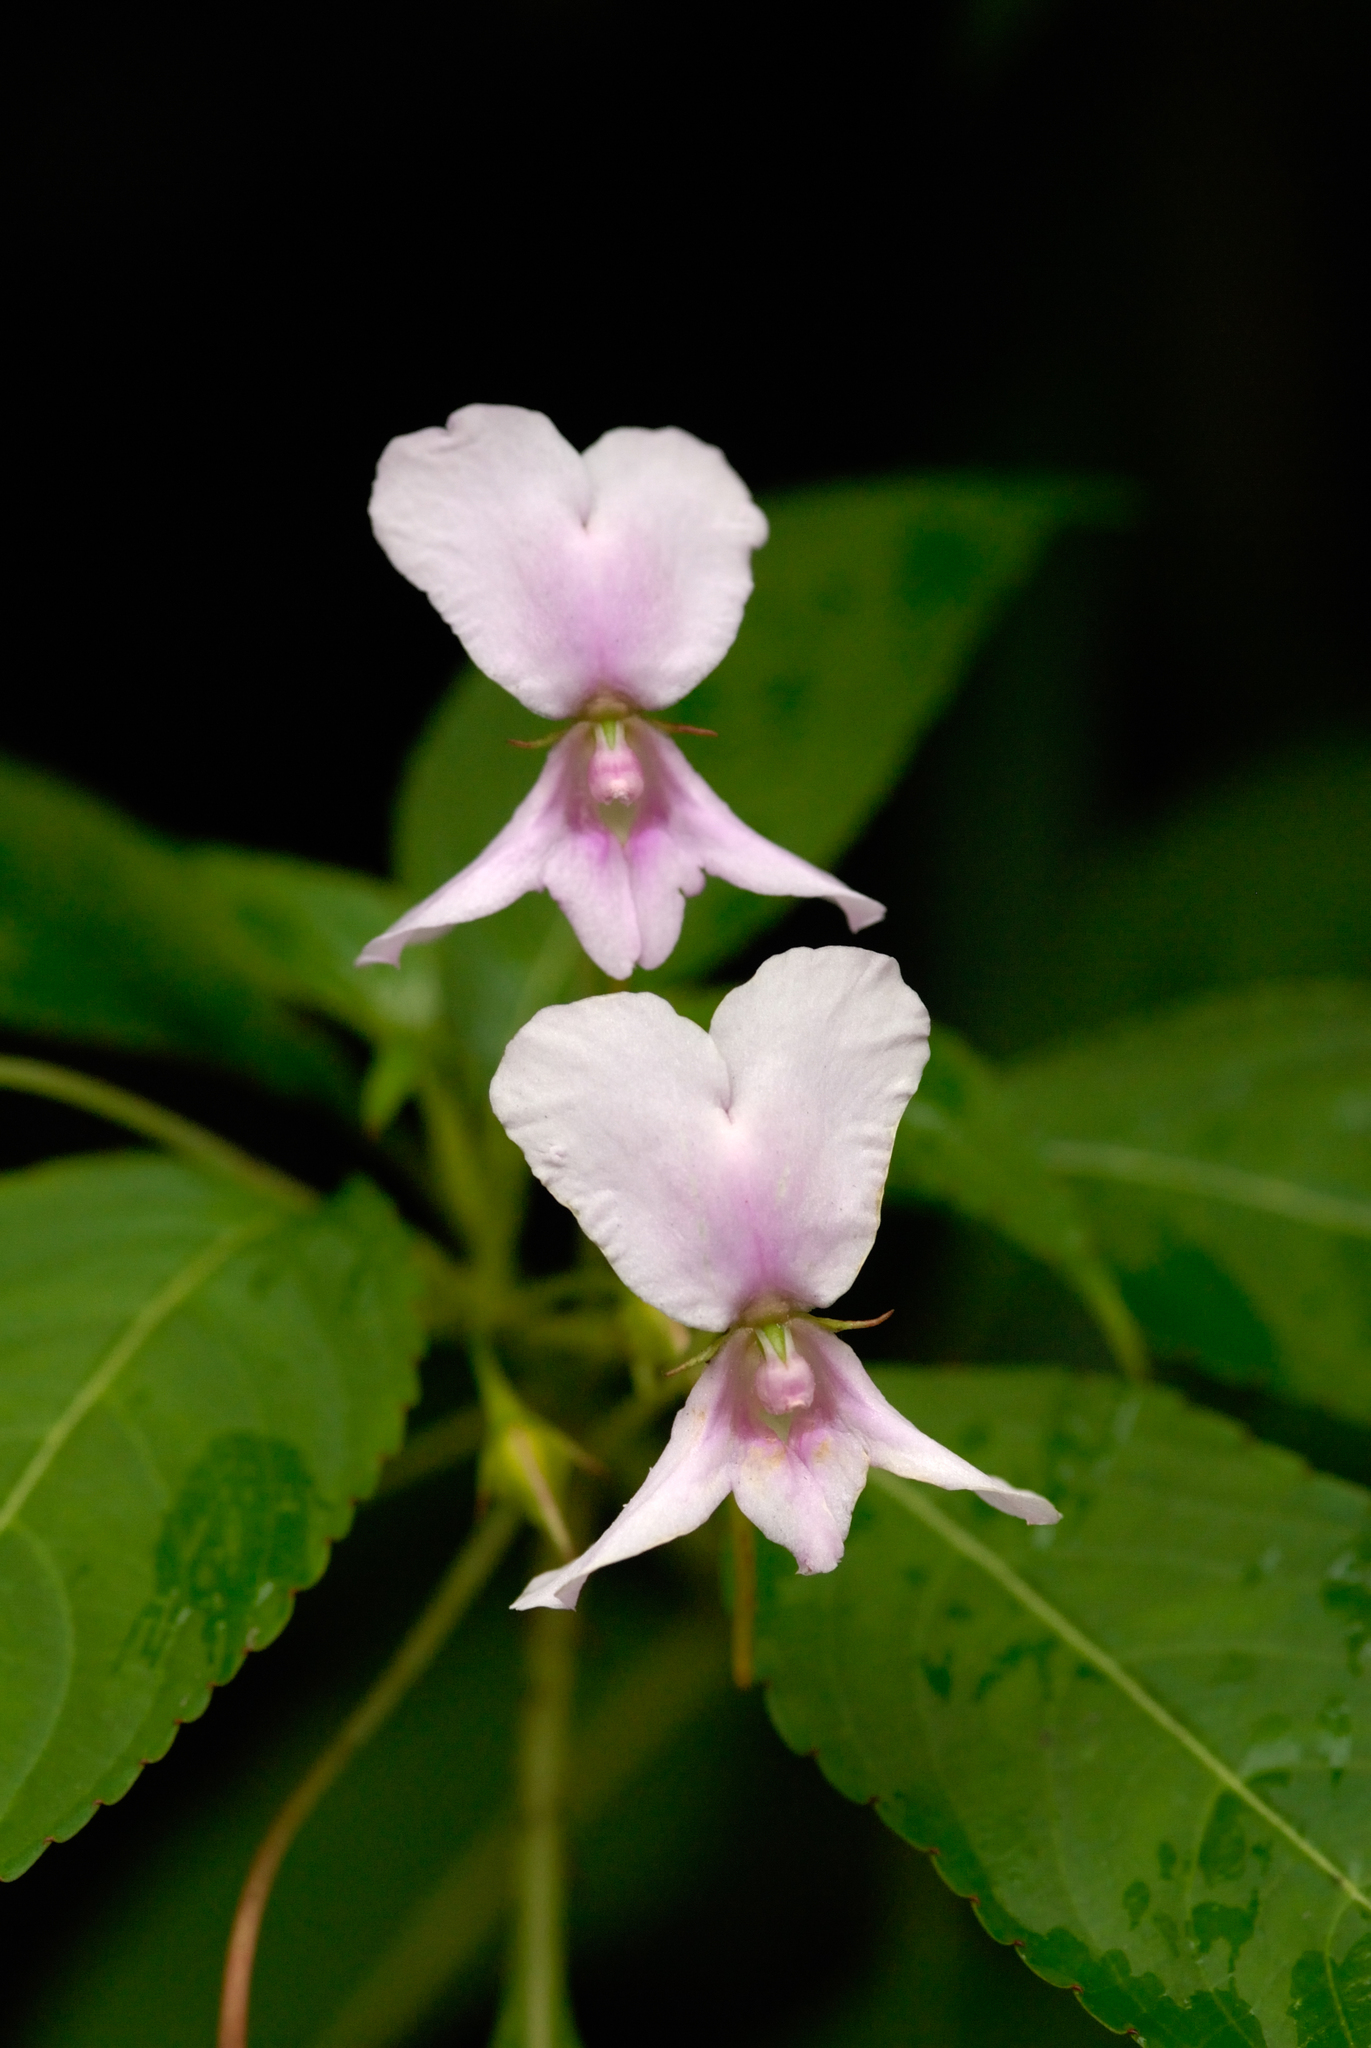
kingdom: Plantae
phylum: Tracheophyta
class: Magnoliopsida
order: Ericales
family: Balsaminaceae
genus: Impatiens
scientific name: Impatiens macrocarpa
